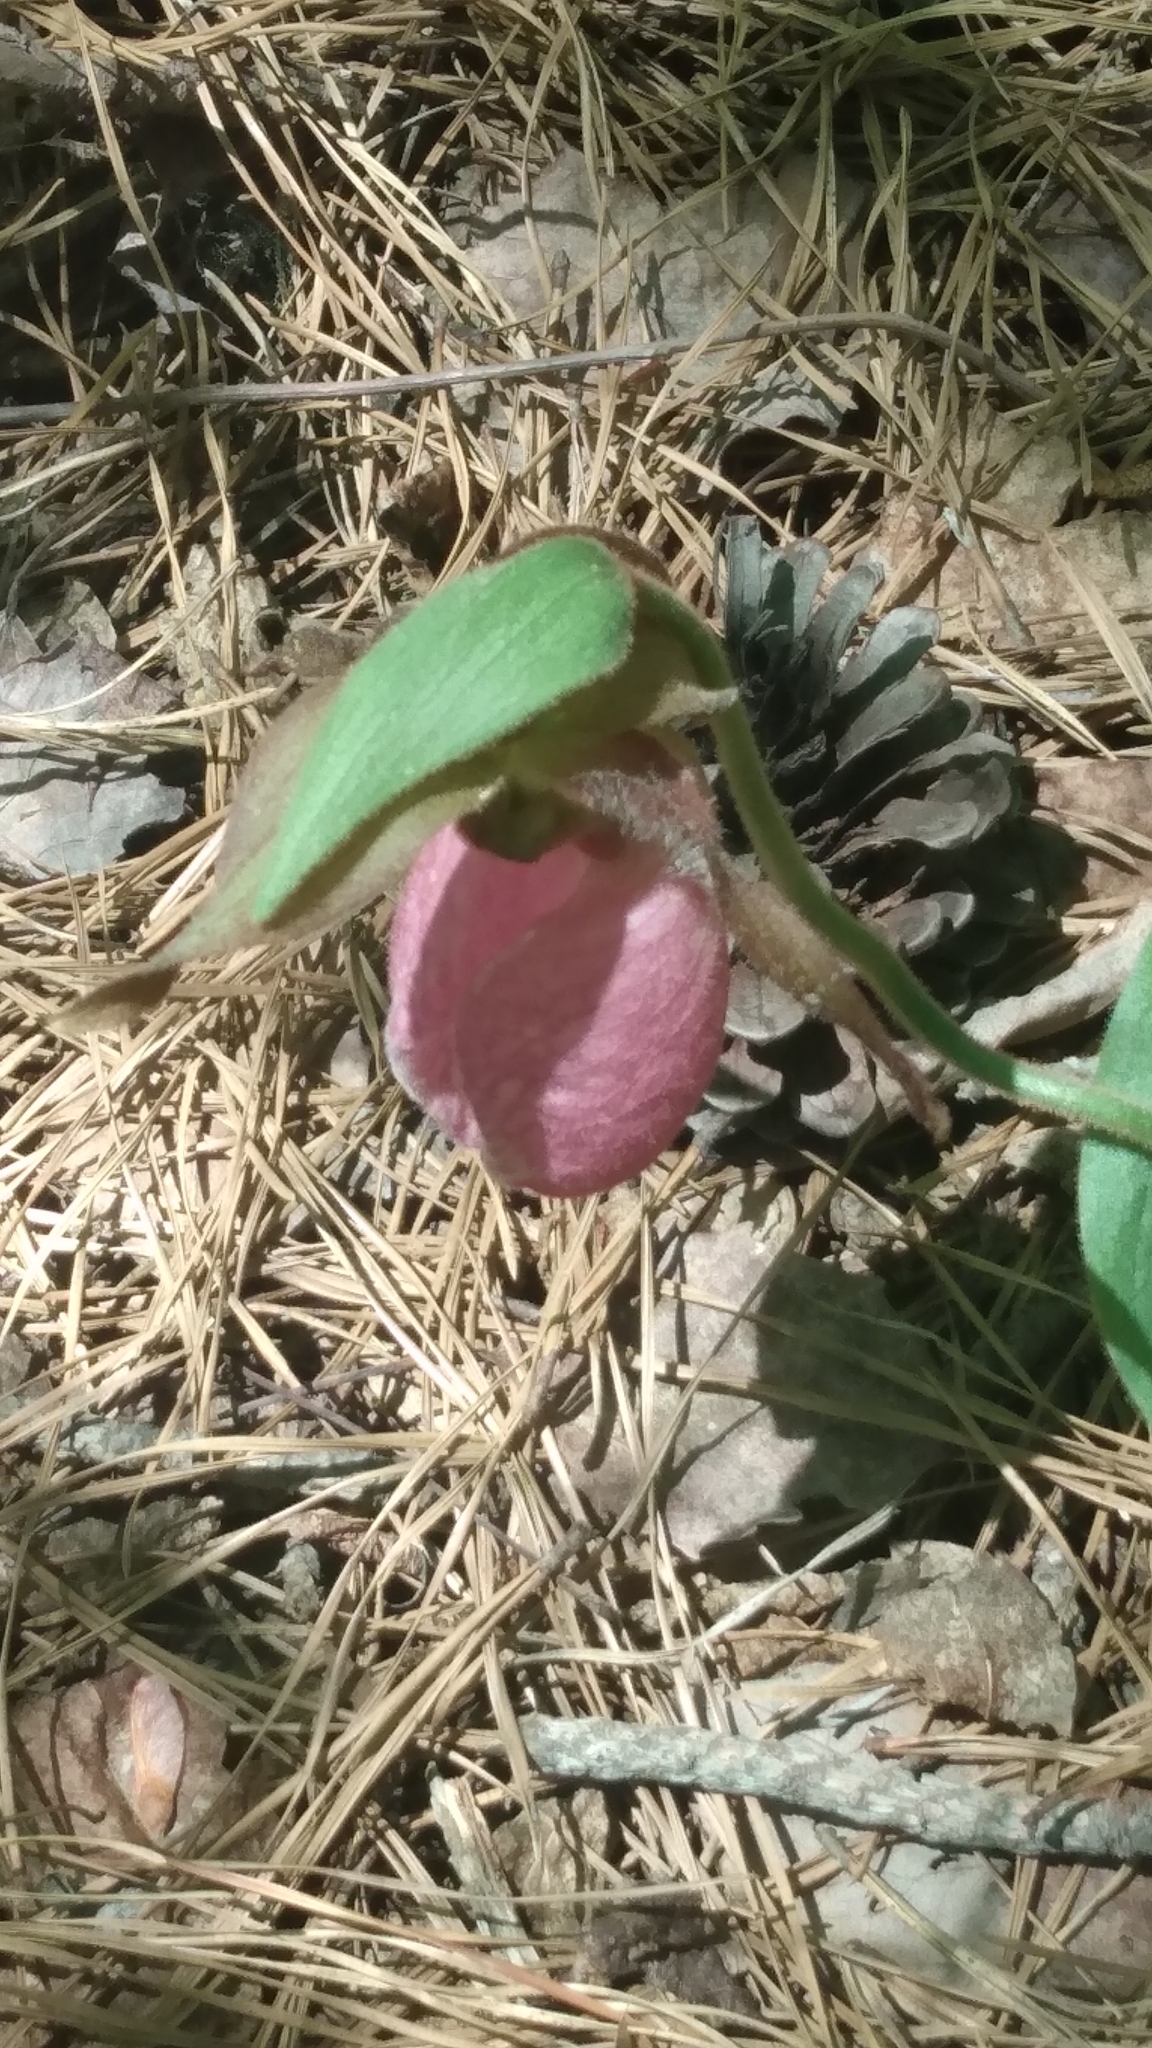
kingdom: Plantae
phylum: Tracheophyta
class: Liliopsida
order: Asparagales
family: Orchidaceae
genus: Cypripedium
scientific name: Cypripedium acaule
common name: Pink lady's-slipper
